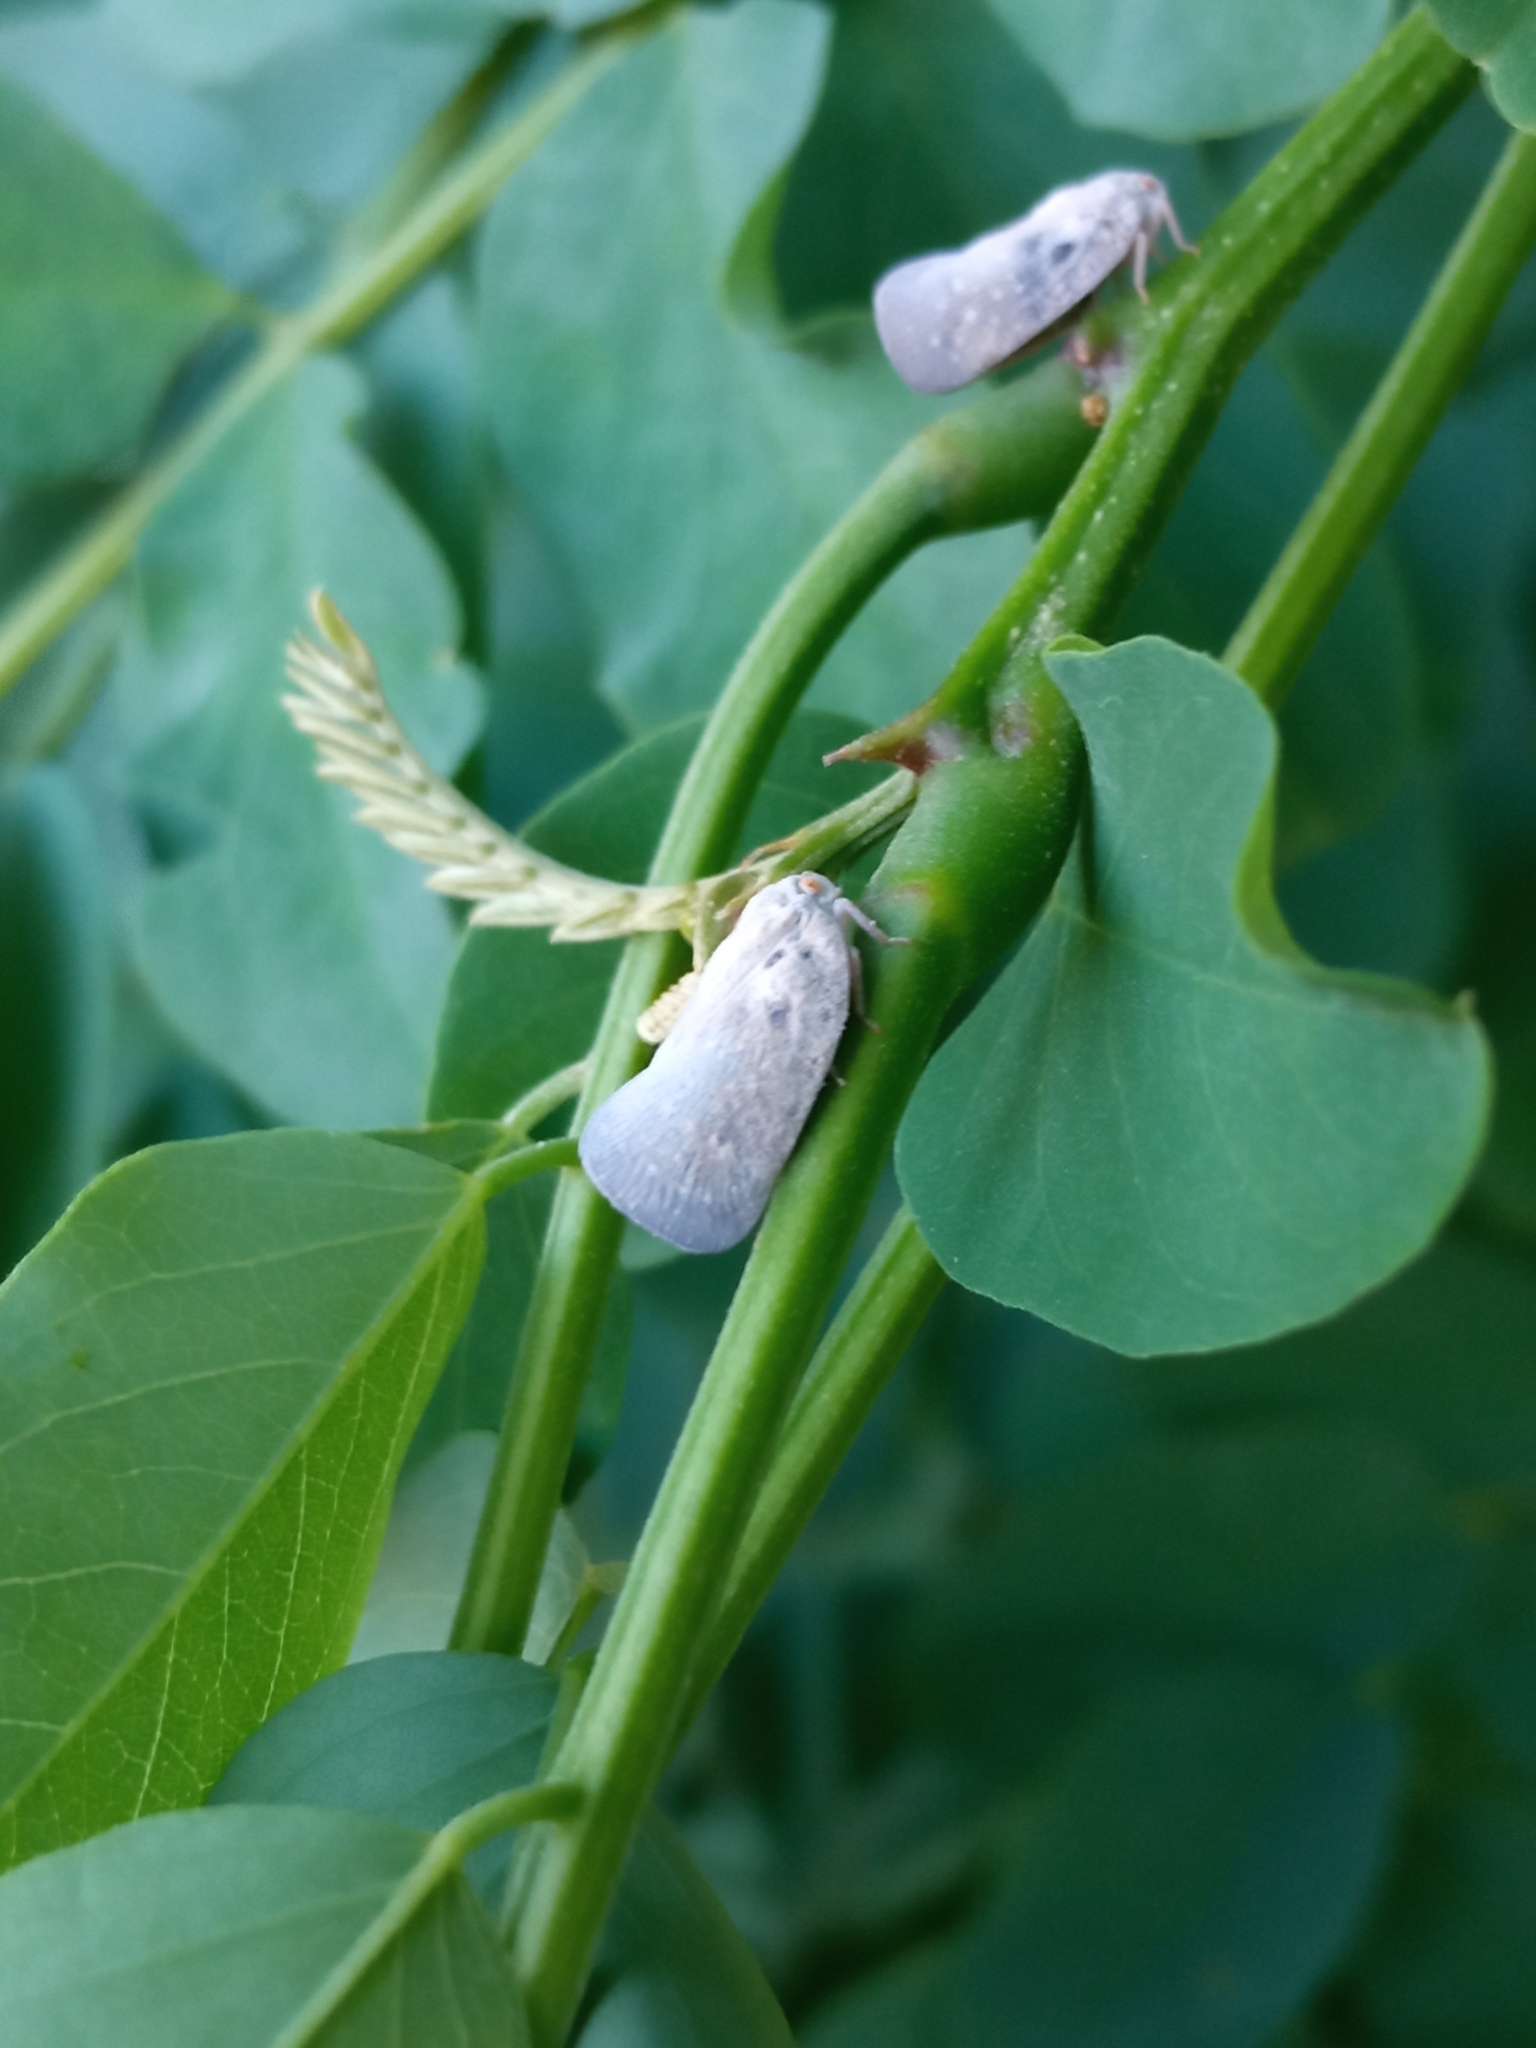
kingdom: Animalia
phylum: Arthropoda
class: Insecta
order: Hemiptera
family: Flatidae
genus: Metcalfa
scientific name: Metcalfa pruinosa
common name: Citrus flatid planthopper
